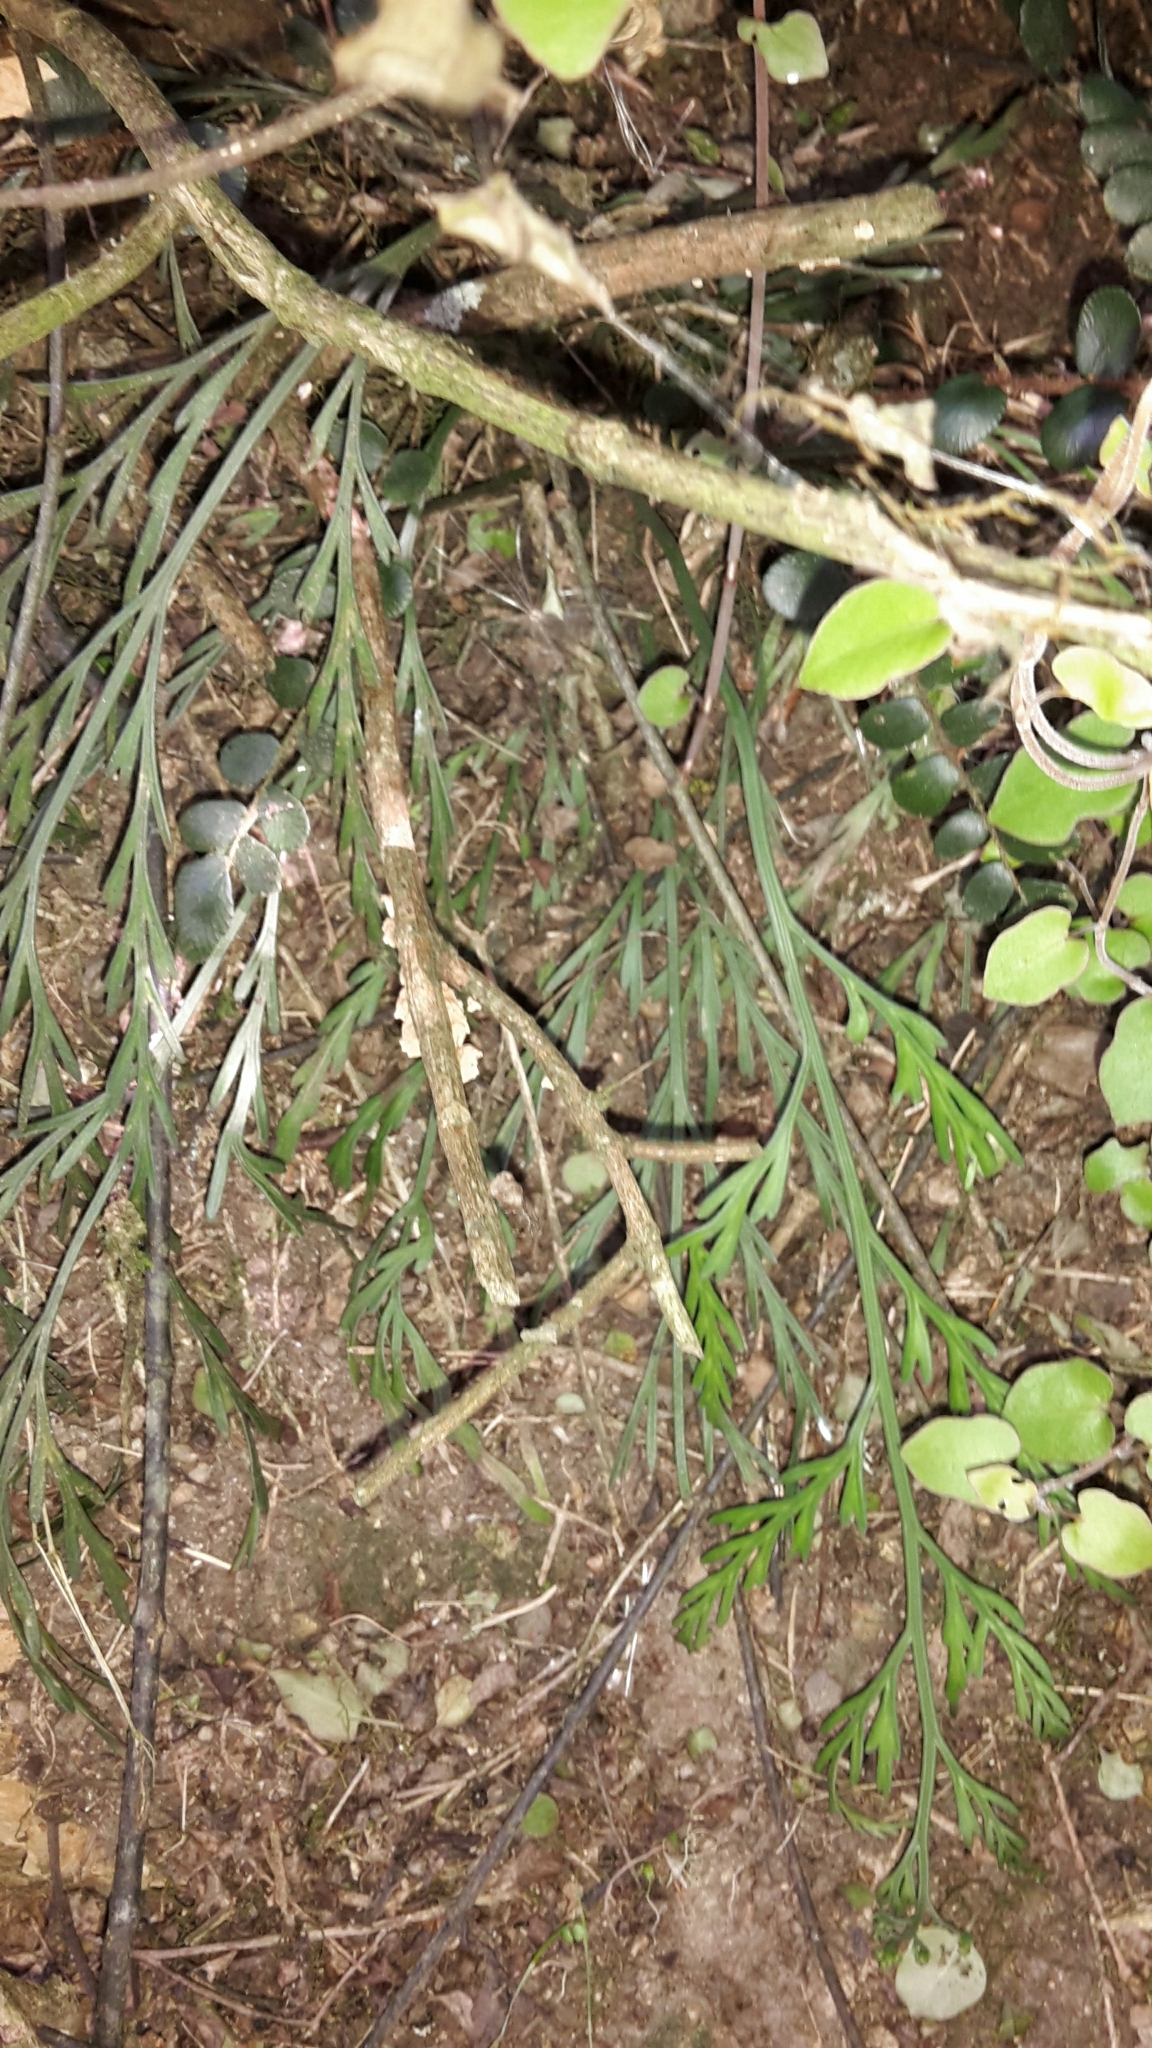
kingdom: Plantae
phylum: Tracheophyta
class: Polypodiopsida
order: Polypodiales
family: Aspleniaceae
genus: Asplenium
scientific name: Asplenium flaccidum
